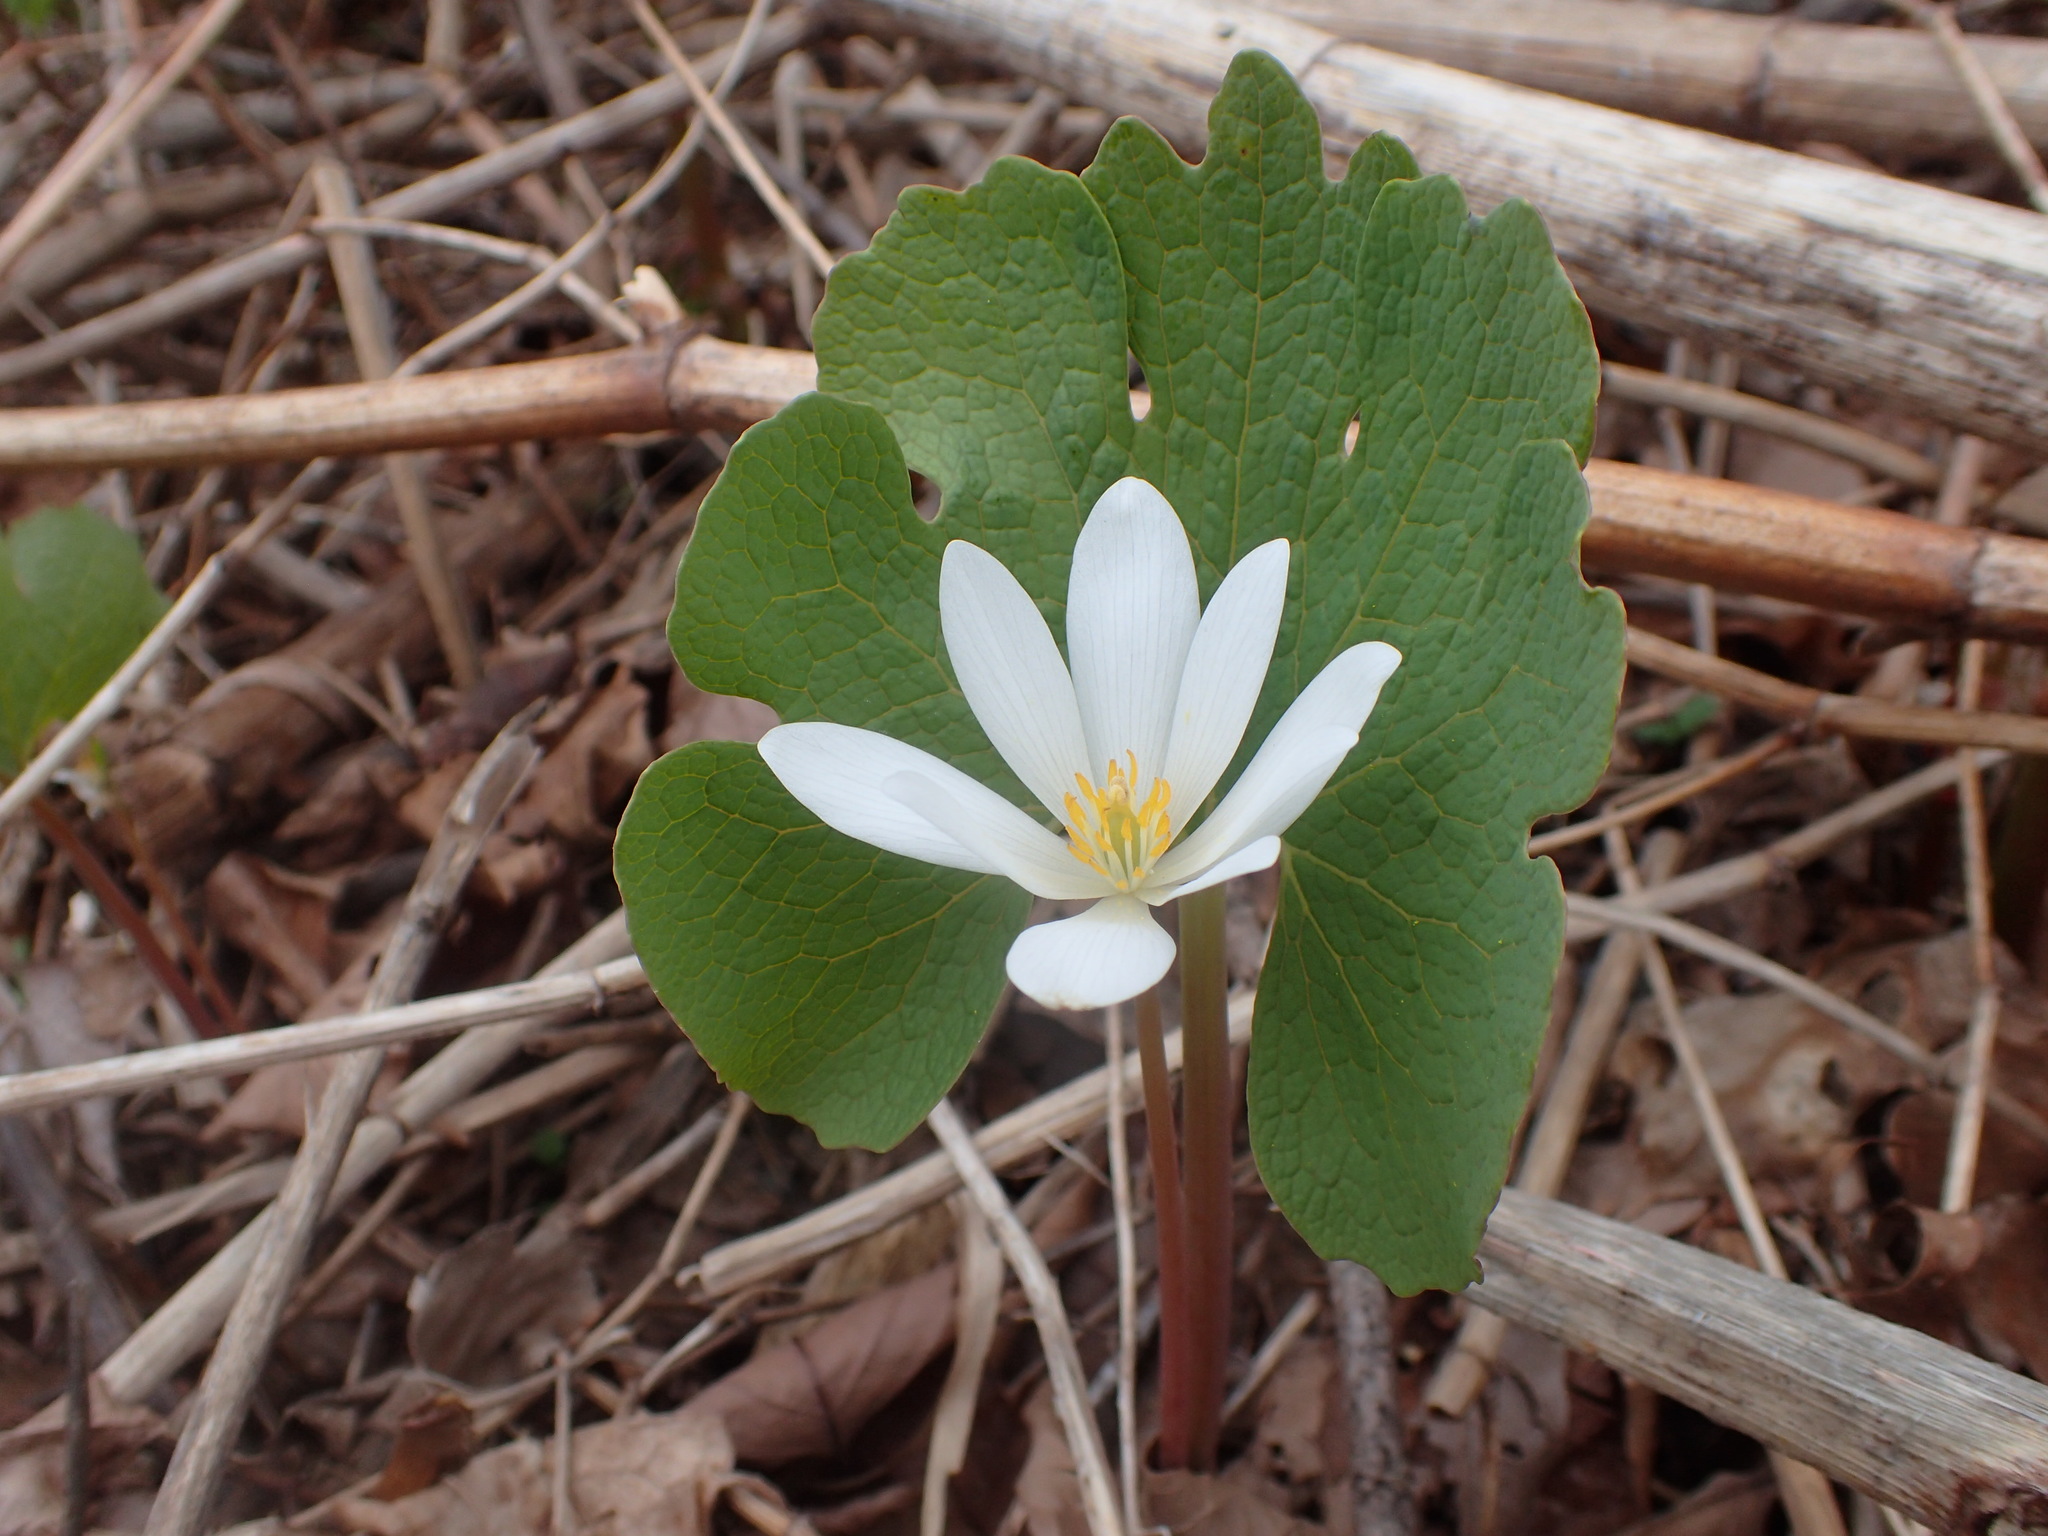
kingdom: Plantae
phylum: Tracheophyta
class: Magnoliopsida
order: Ranunculales
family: Papaveraceae
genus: Sanguinaria
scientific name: Sanguinaria canadensis
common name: Bloodroot
